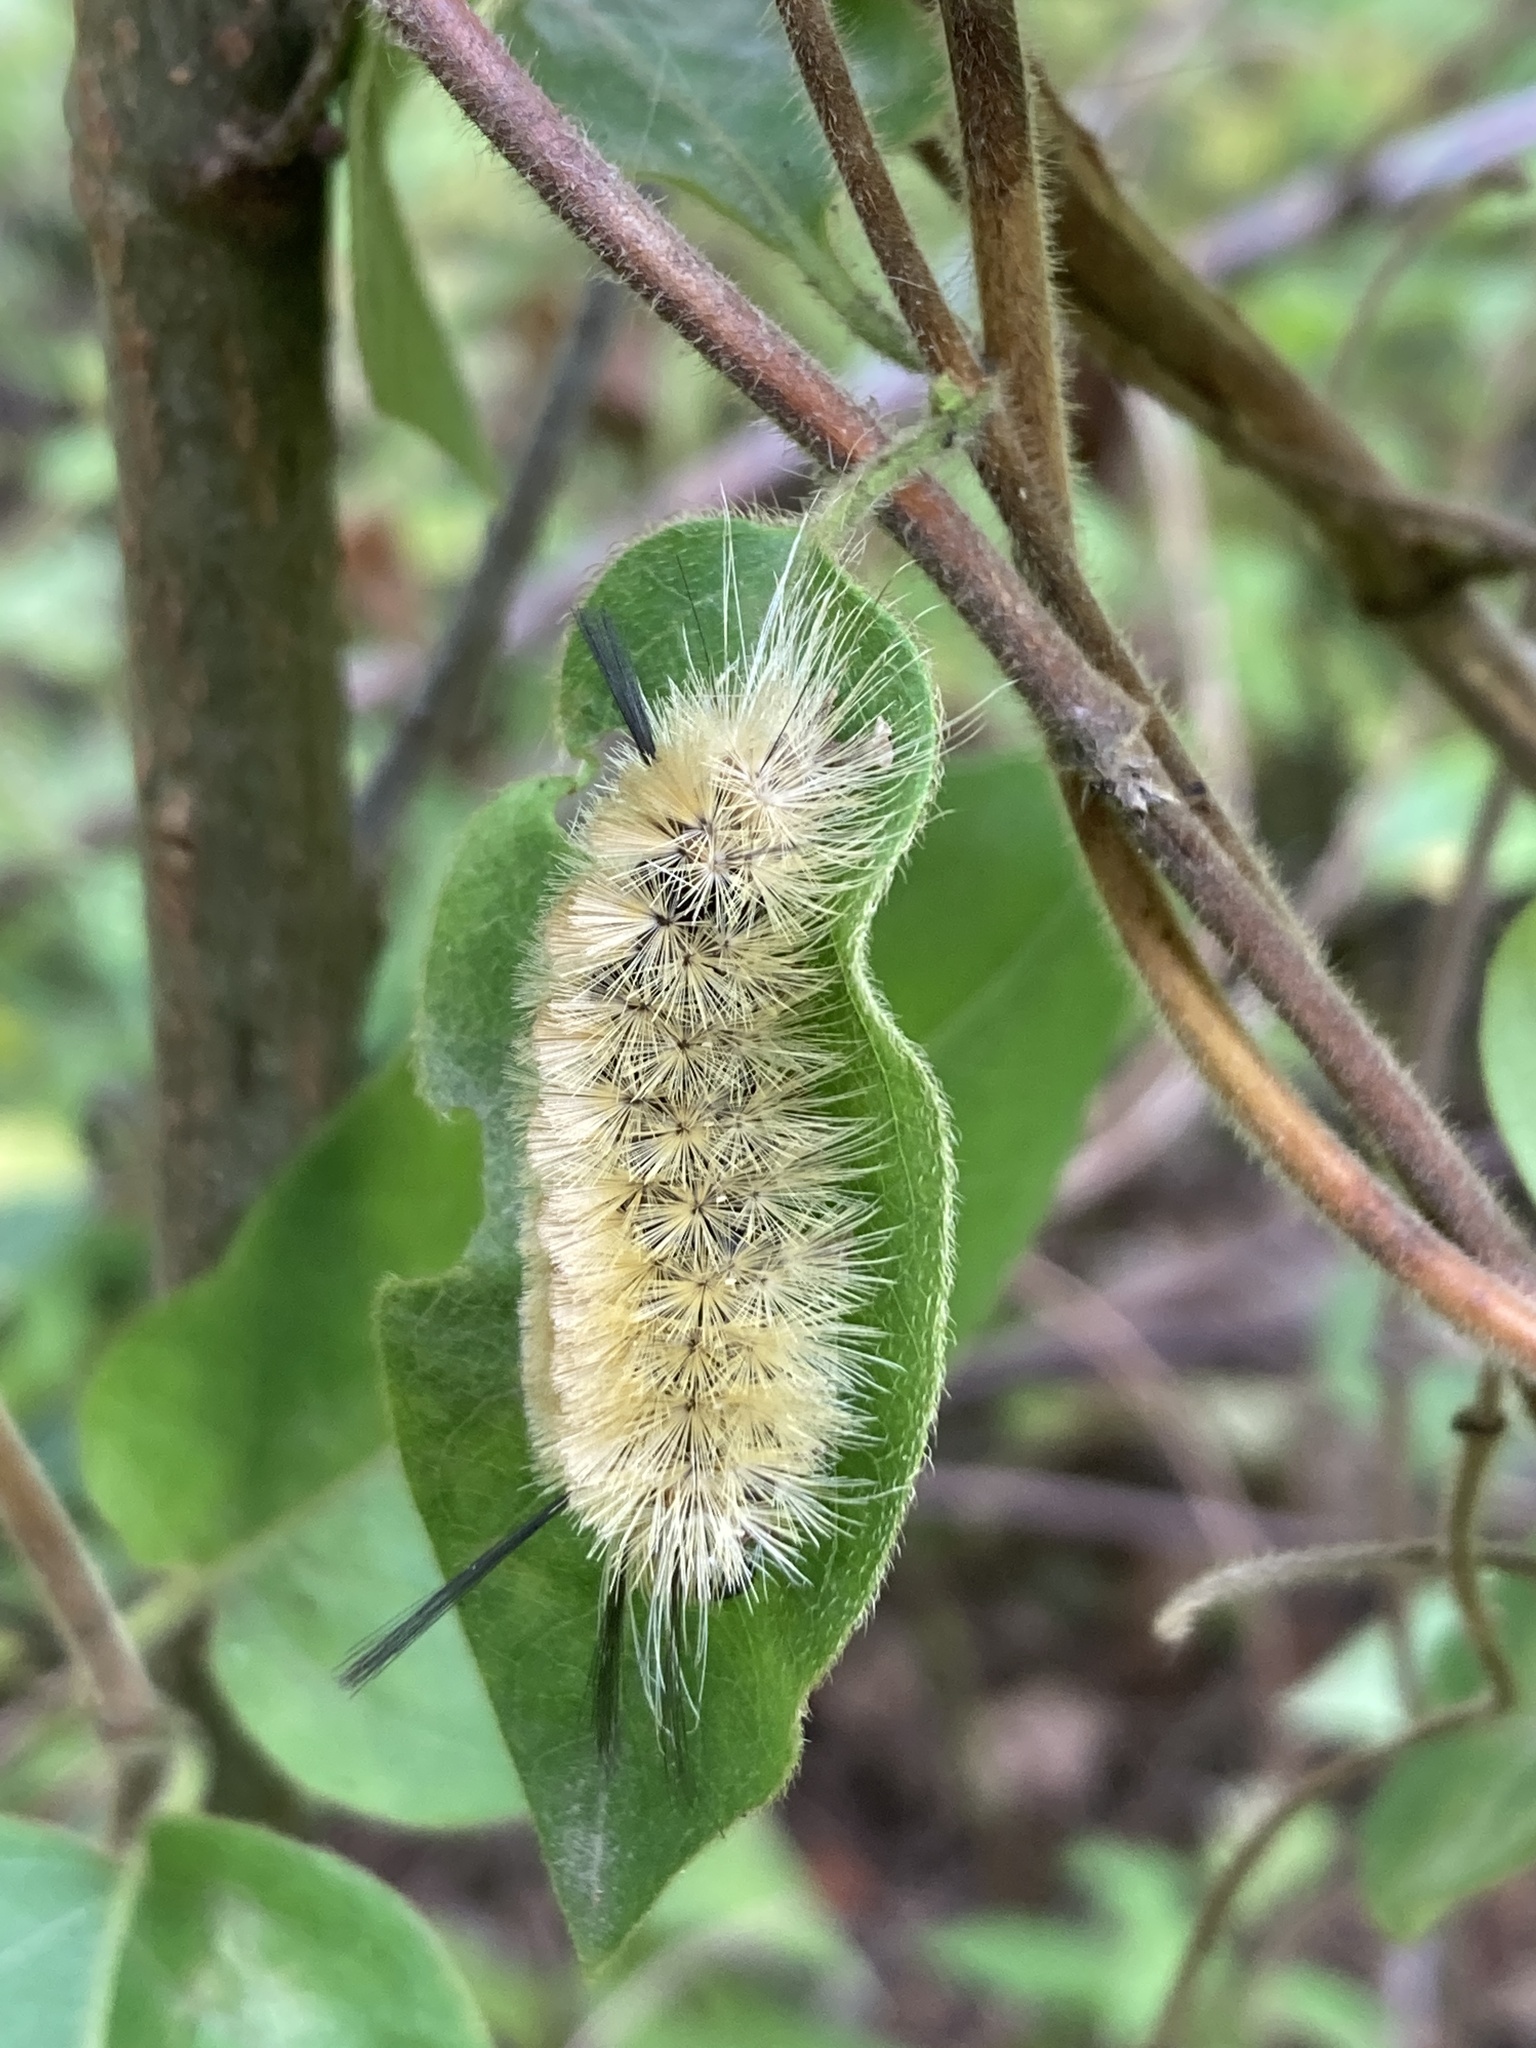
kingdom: Animalia
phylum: Arthropoda
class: Insecta
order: Lepidoptera
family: Erebidae
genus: Halysidota
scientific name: Halysidota tessellaris
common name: Banded tussock moth
